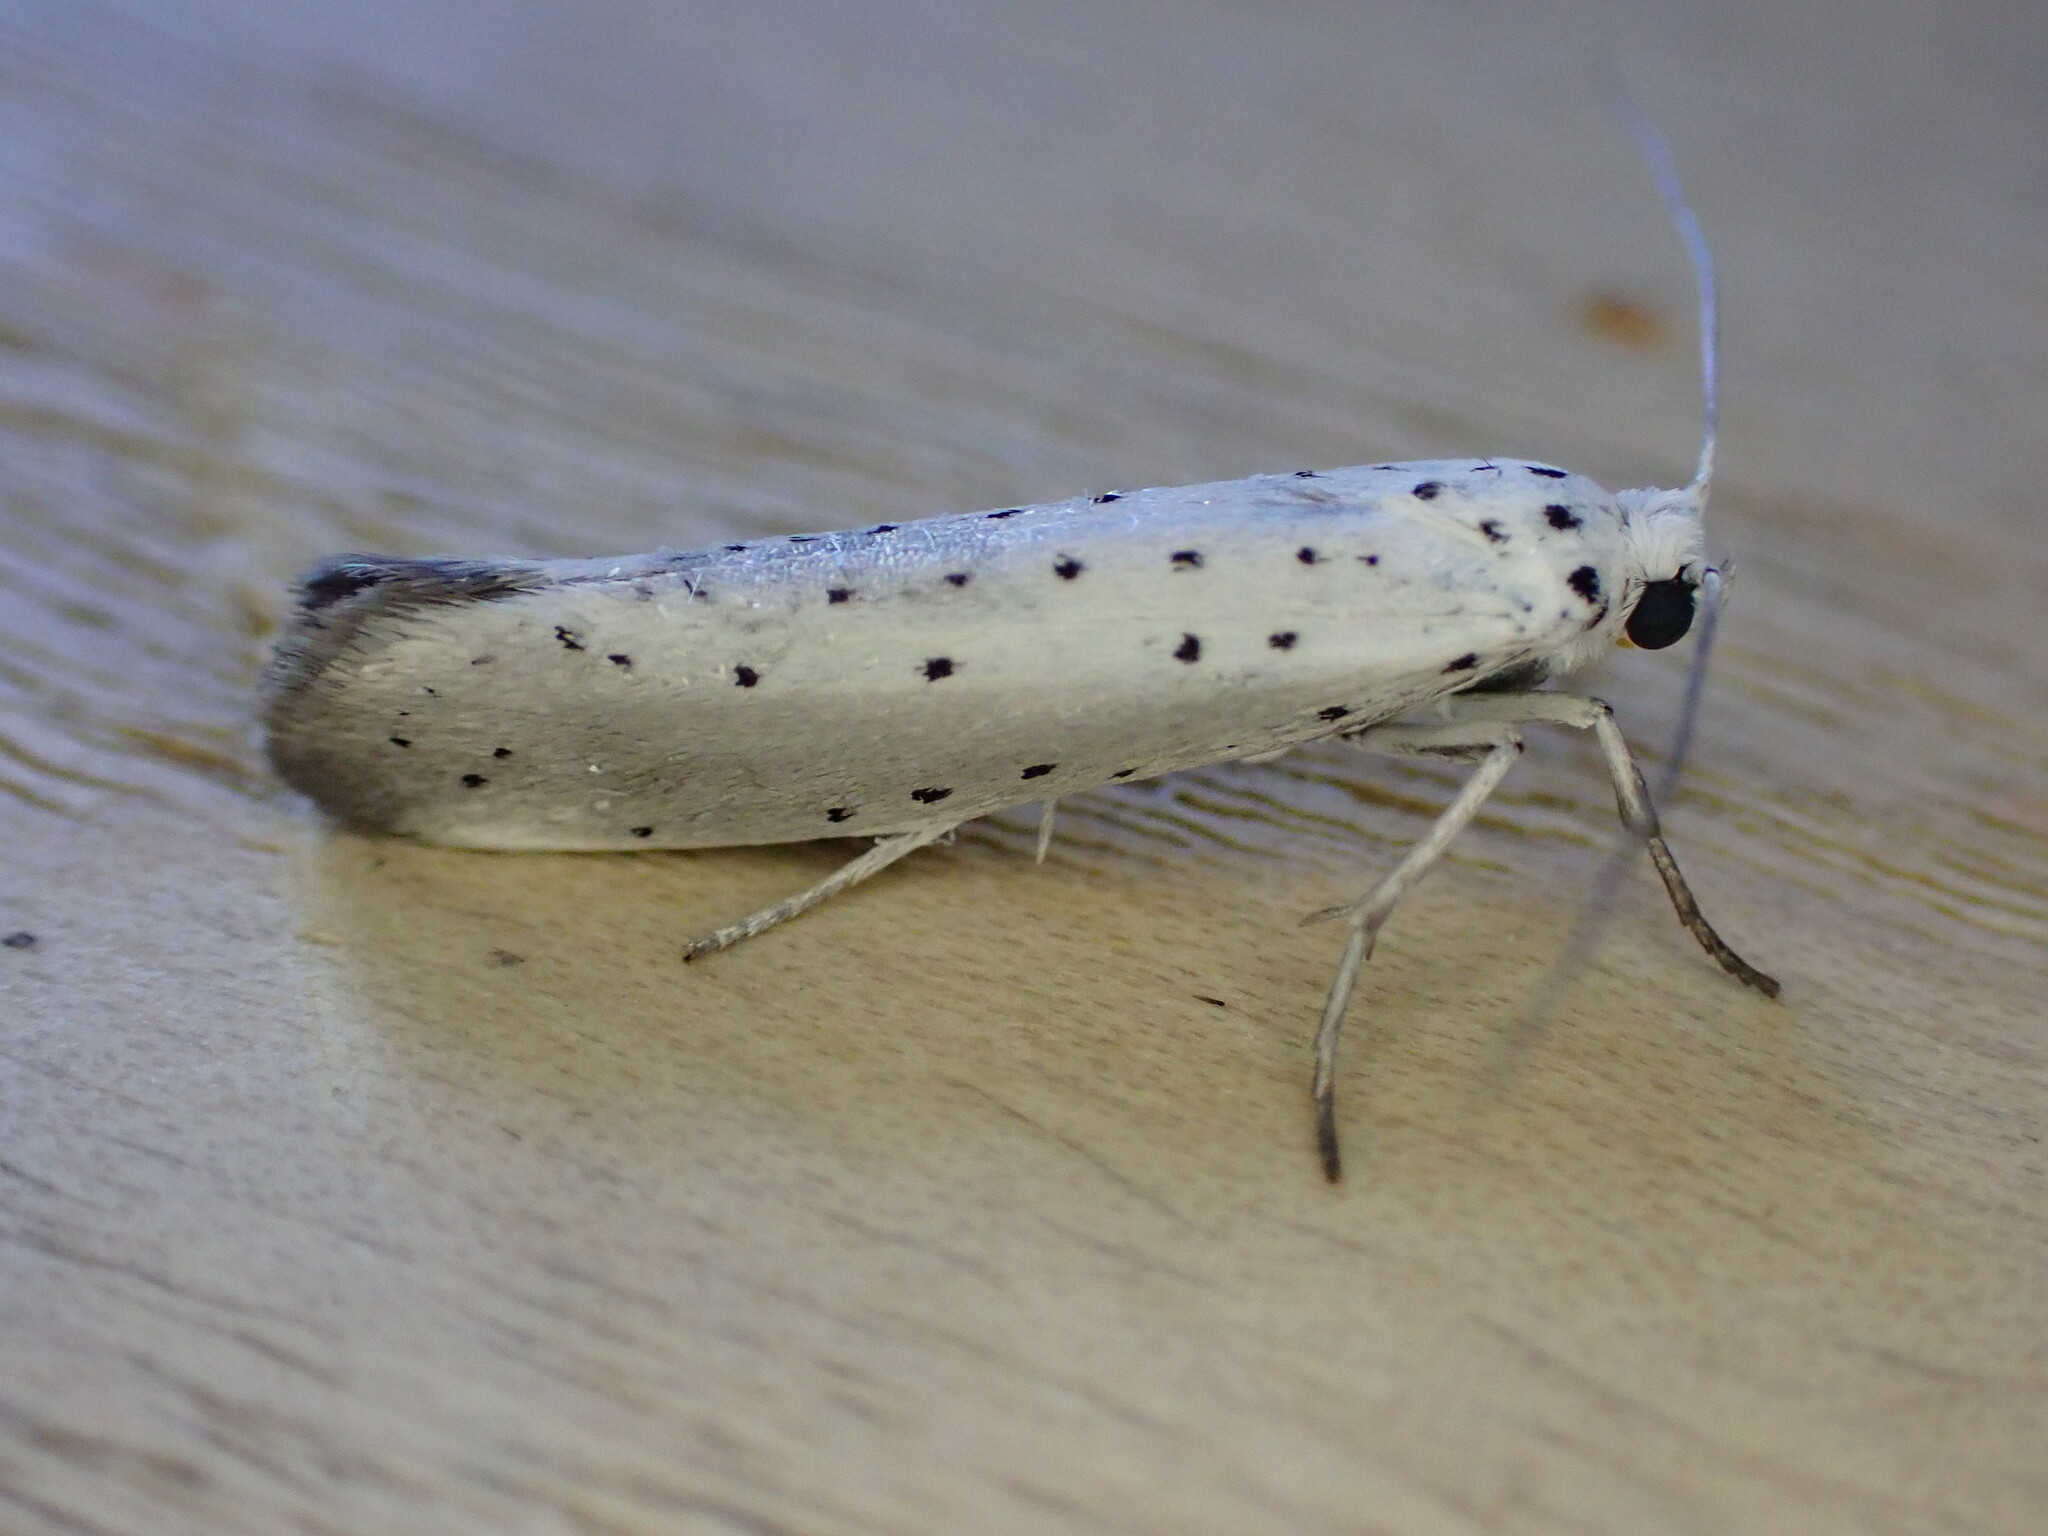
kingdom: Animalia
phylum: Arthropoda
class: Insecta
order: Lepidoptera
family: Yponomeutidae
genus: Yponomeuta
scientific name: Yponomeuta padella
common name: Orchard ermine
